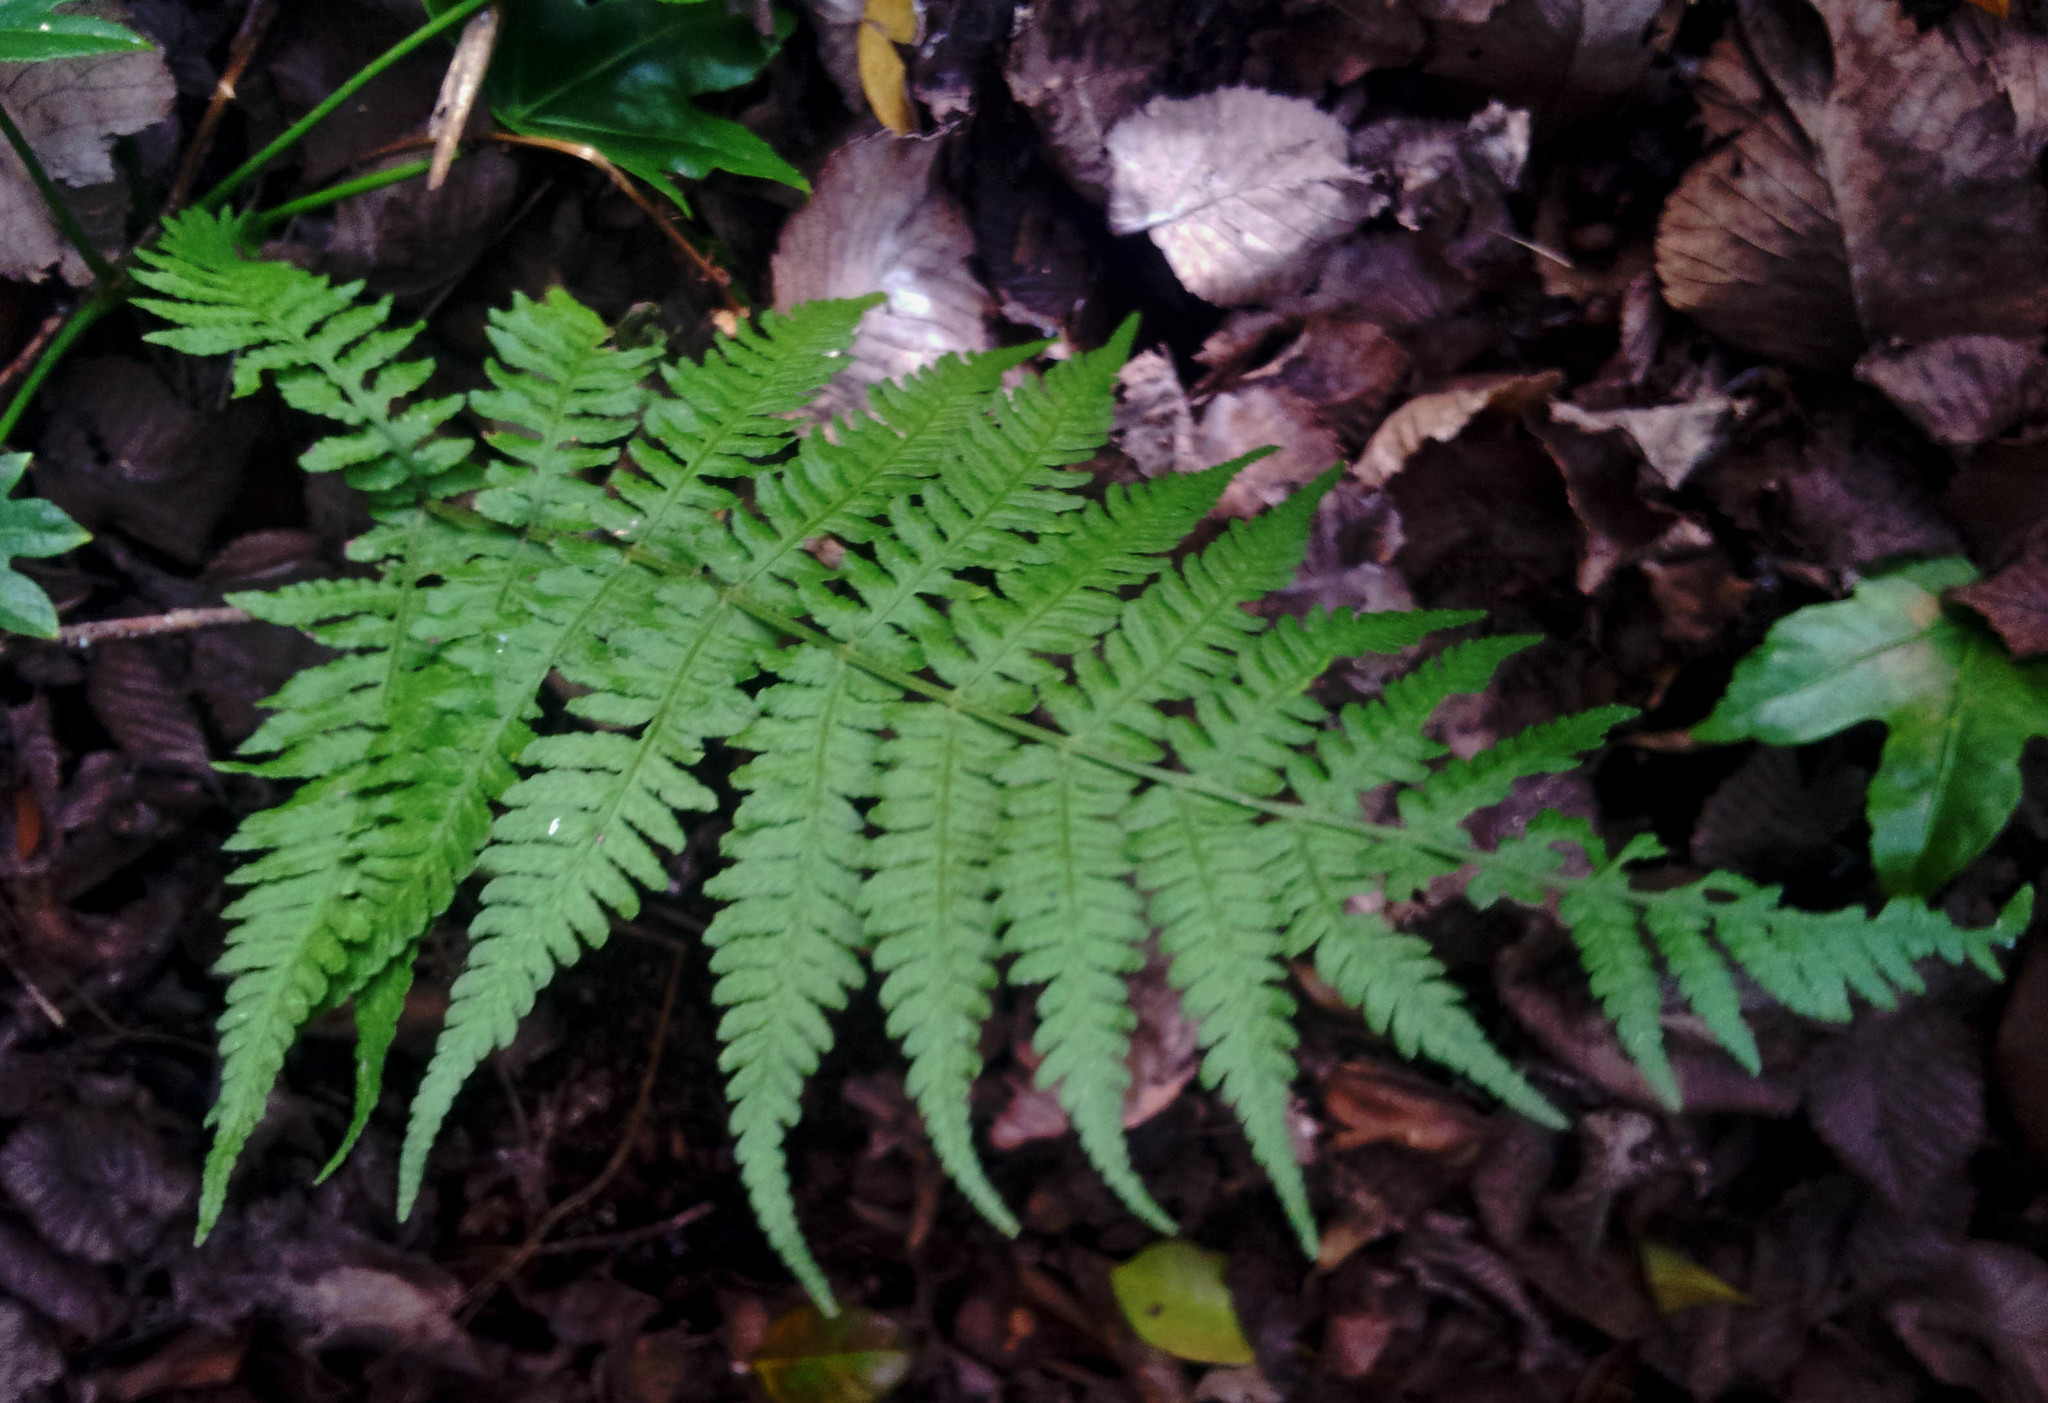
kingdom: Plantae
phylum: Tracheophyta
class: Polypodiopsida
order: Polypodiales
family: Athyriaceae
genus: Diplazium
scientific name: Diplazium congruum
